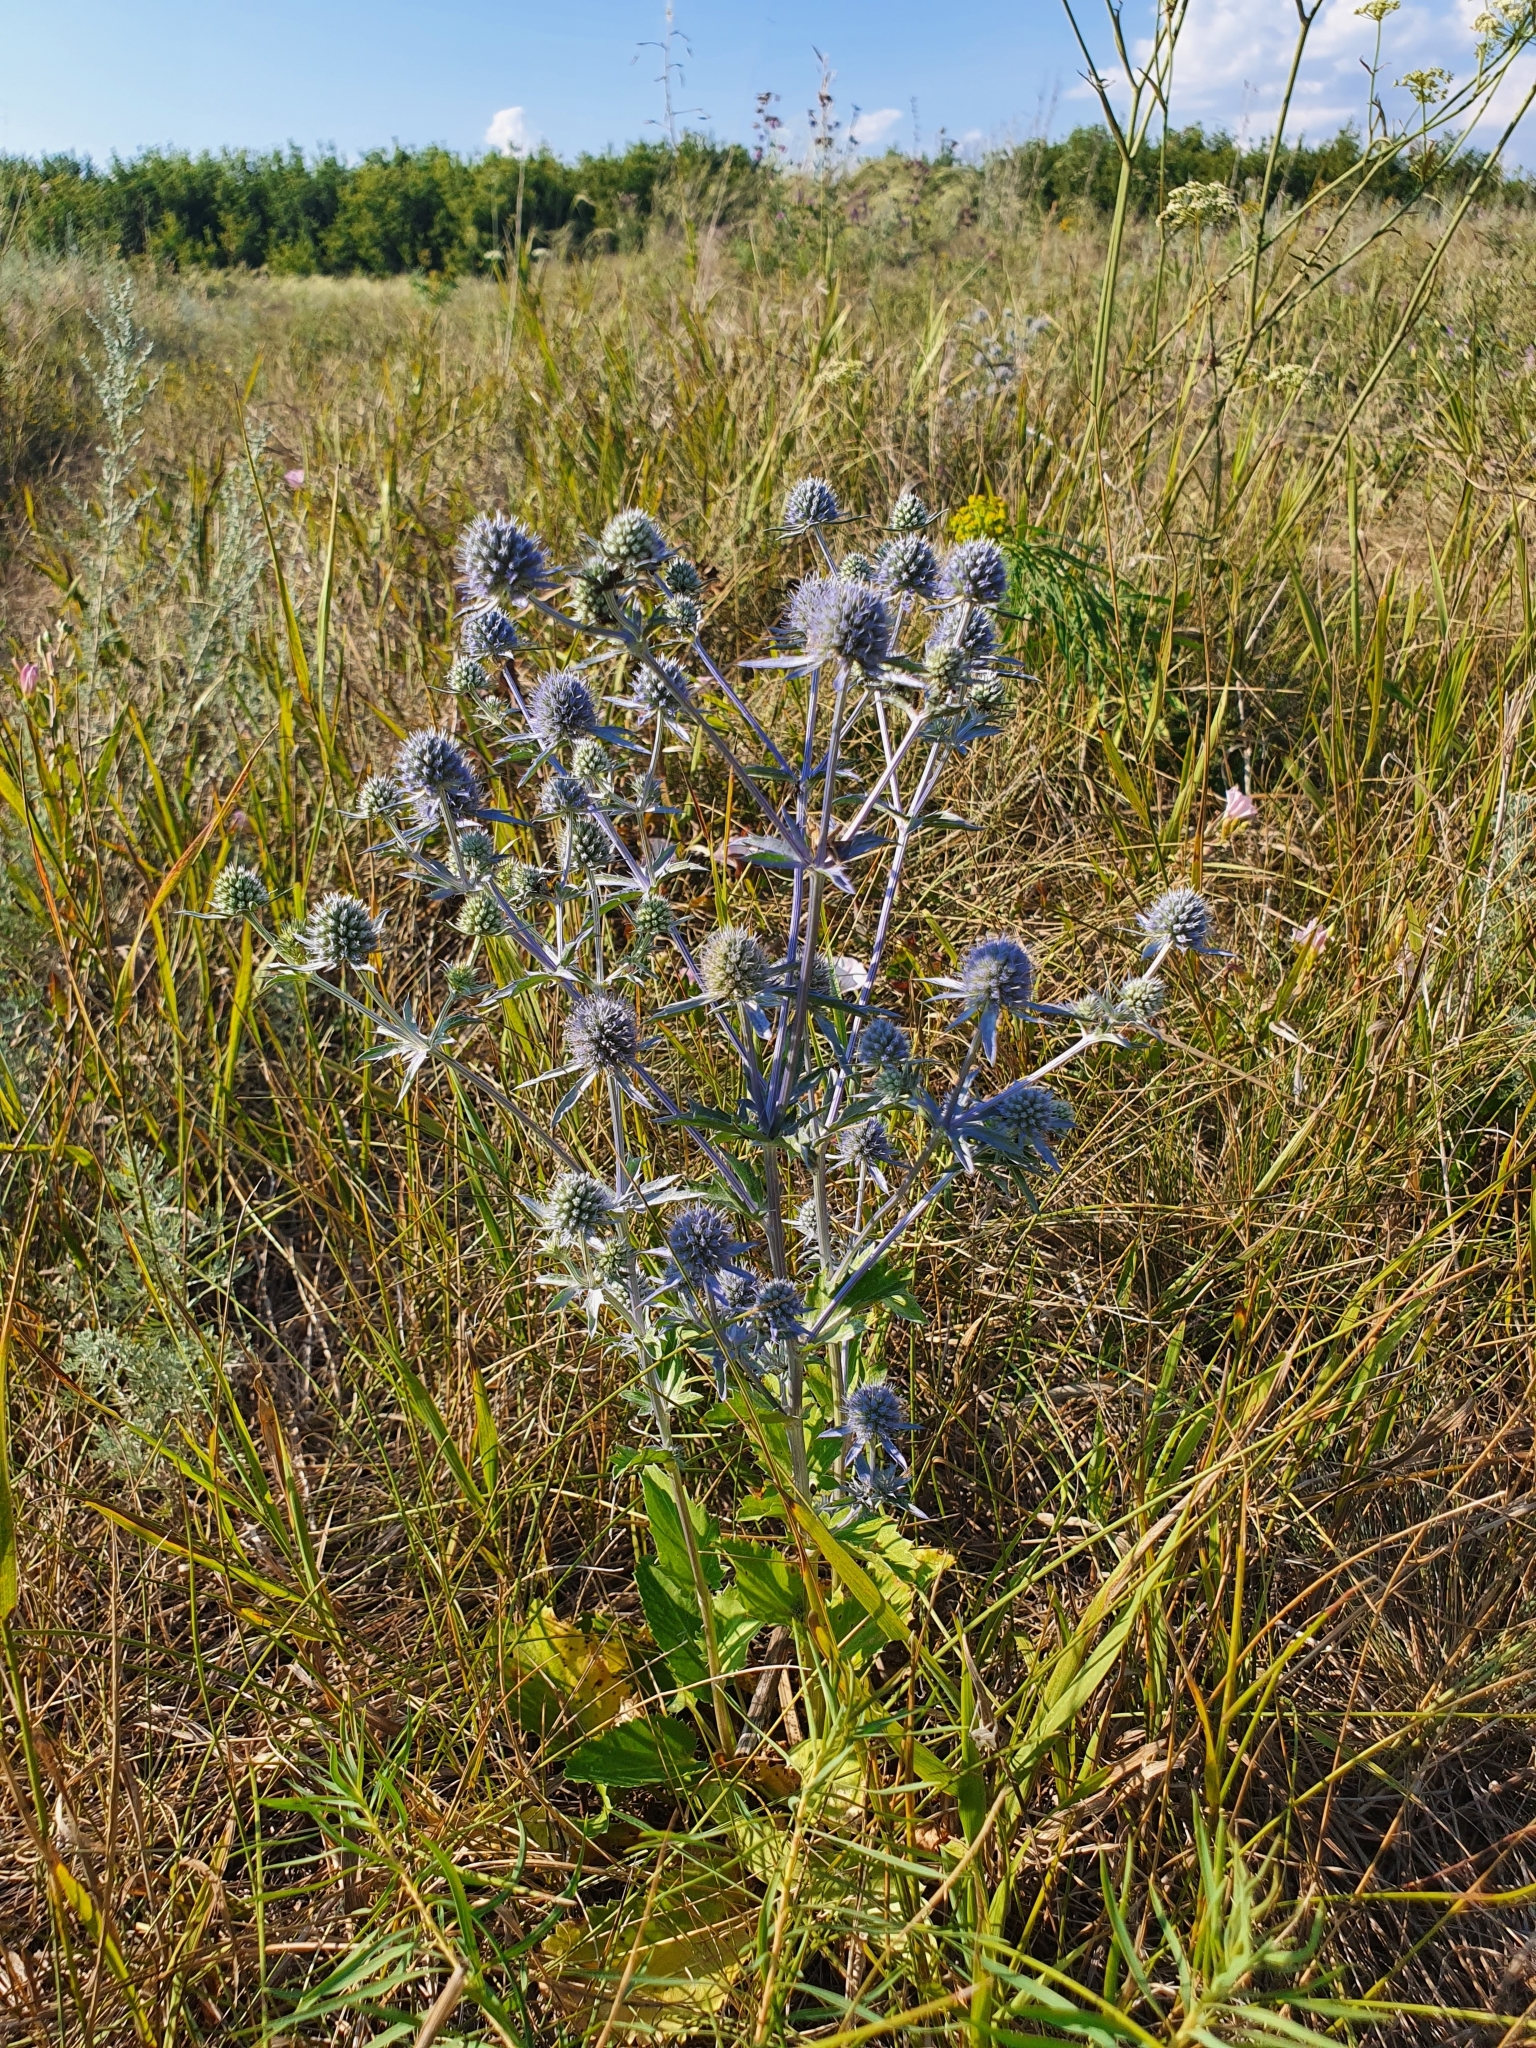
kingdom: Plantae
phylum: Tracheophyta
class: Magnoliopsida
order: Apiales
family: Apiaceae
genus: Eryngium
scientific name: Eryngium planum
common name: Blue eryngo
